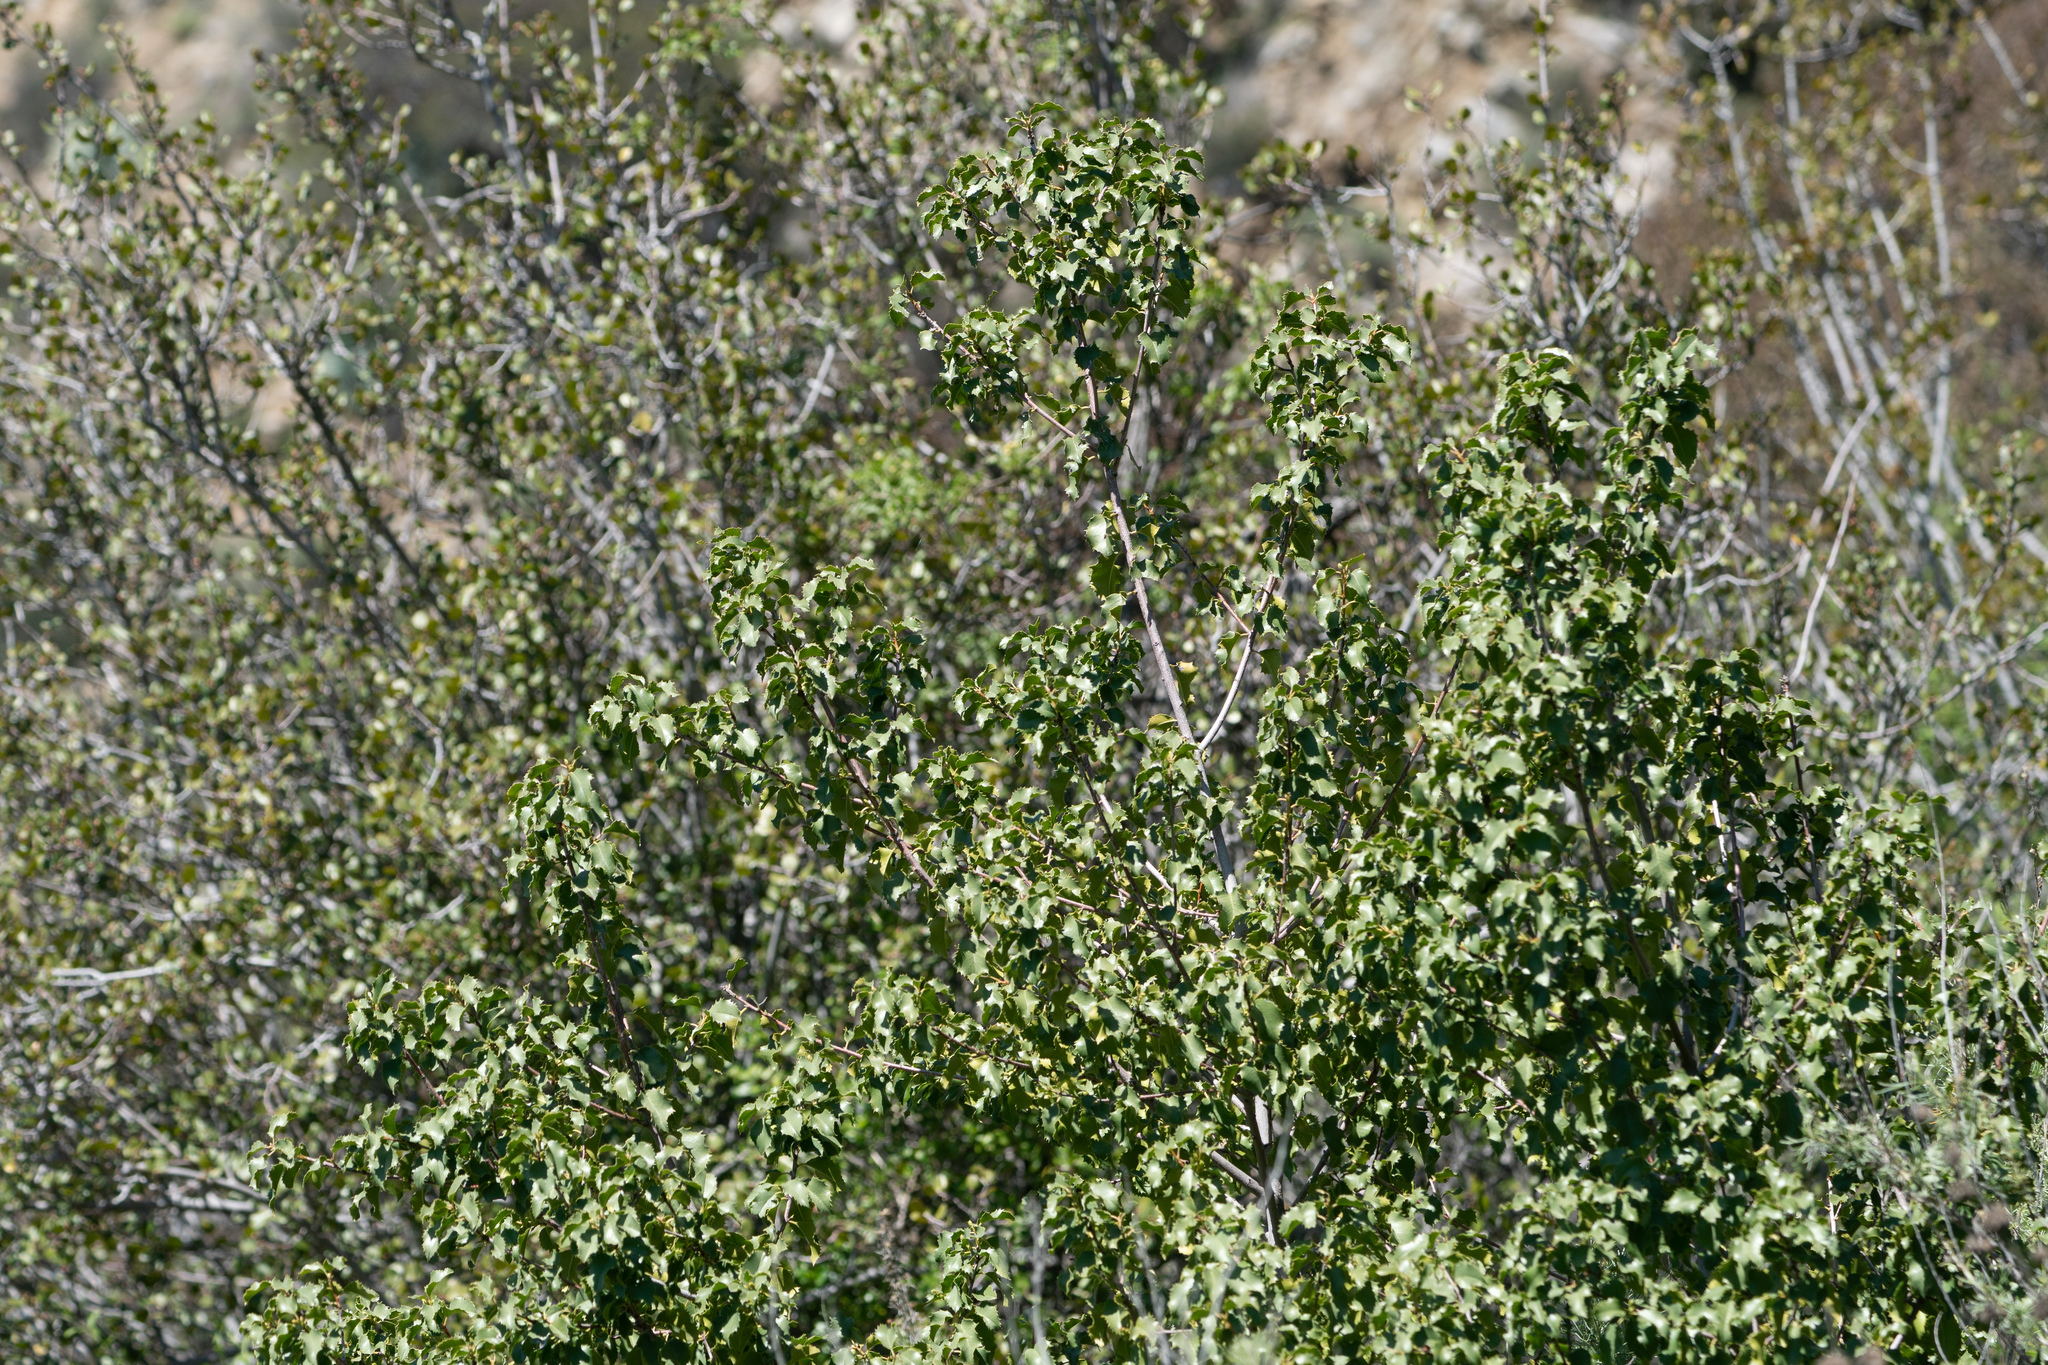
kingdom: Plantae
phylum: Tracheophyta
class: Magnoliopsida
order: Rosales
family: Rosaceae
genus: Prunus
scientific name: Prunus ilicifolia
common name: Hollyleaf cherry
